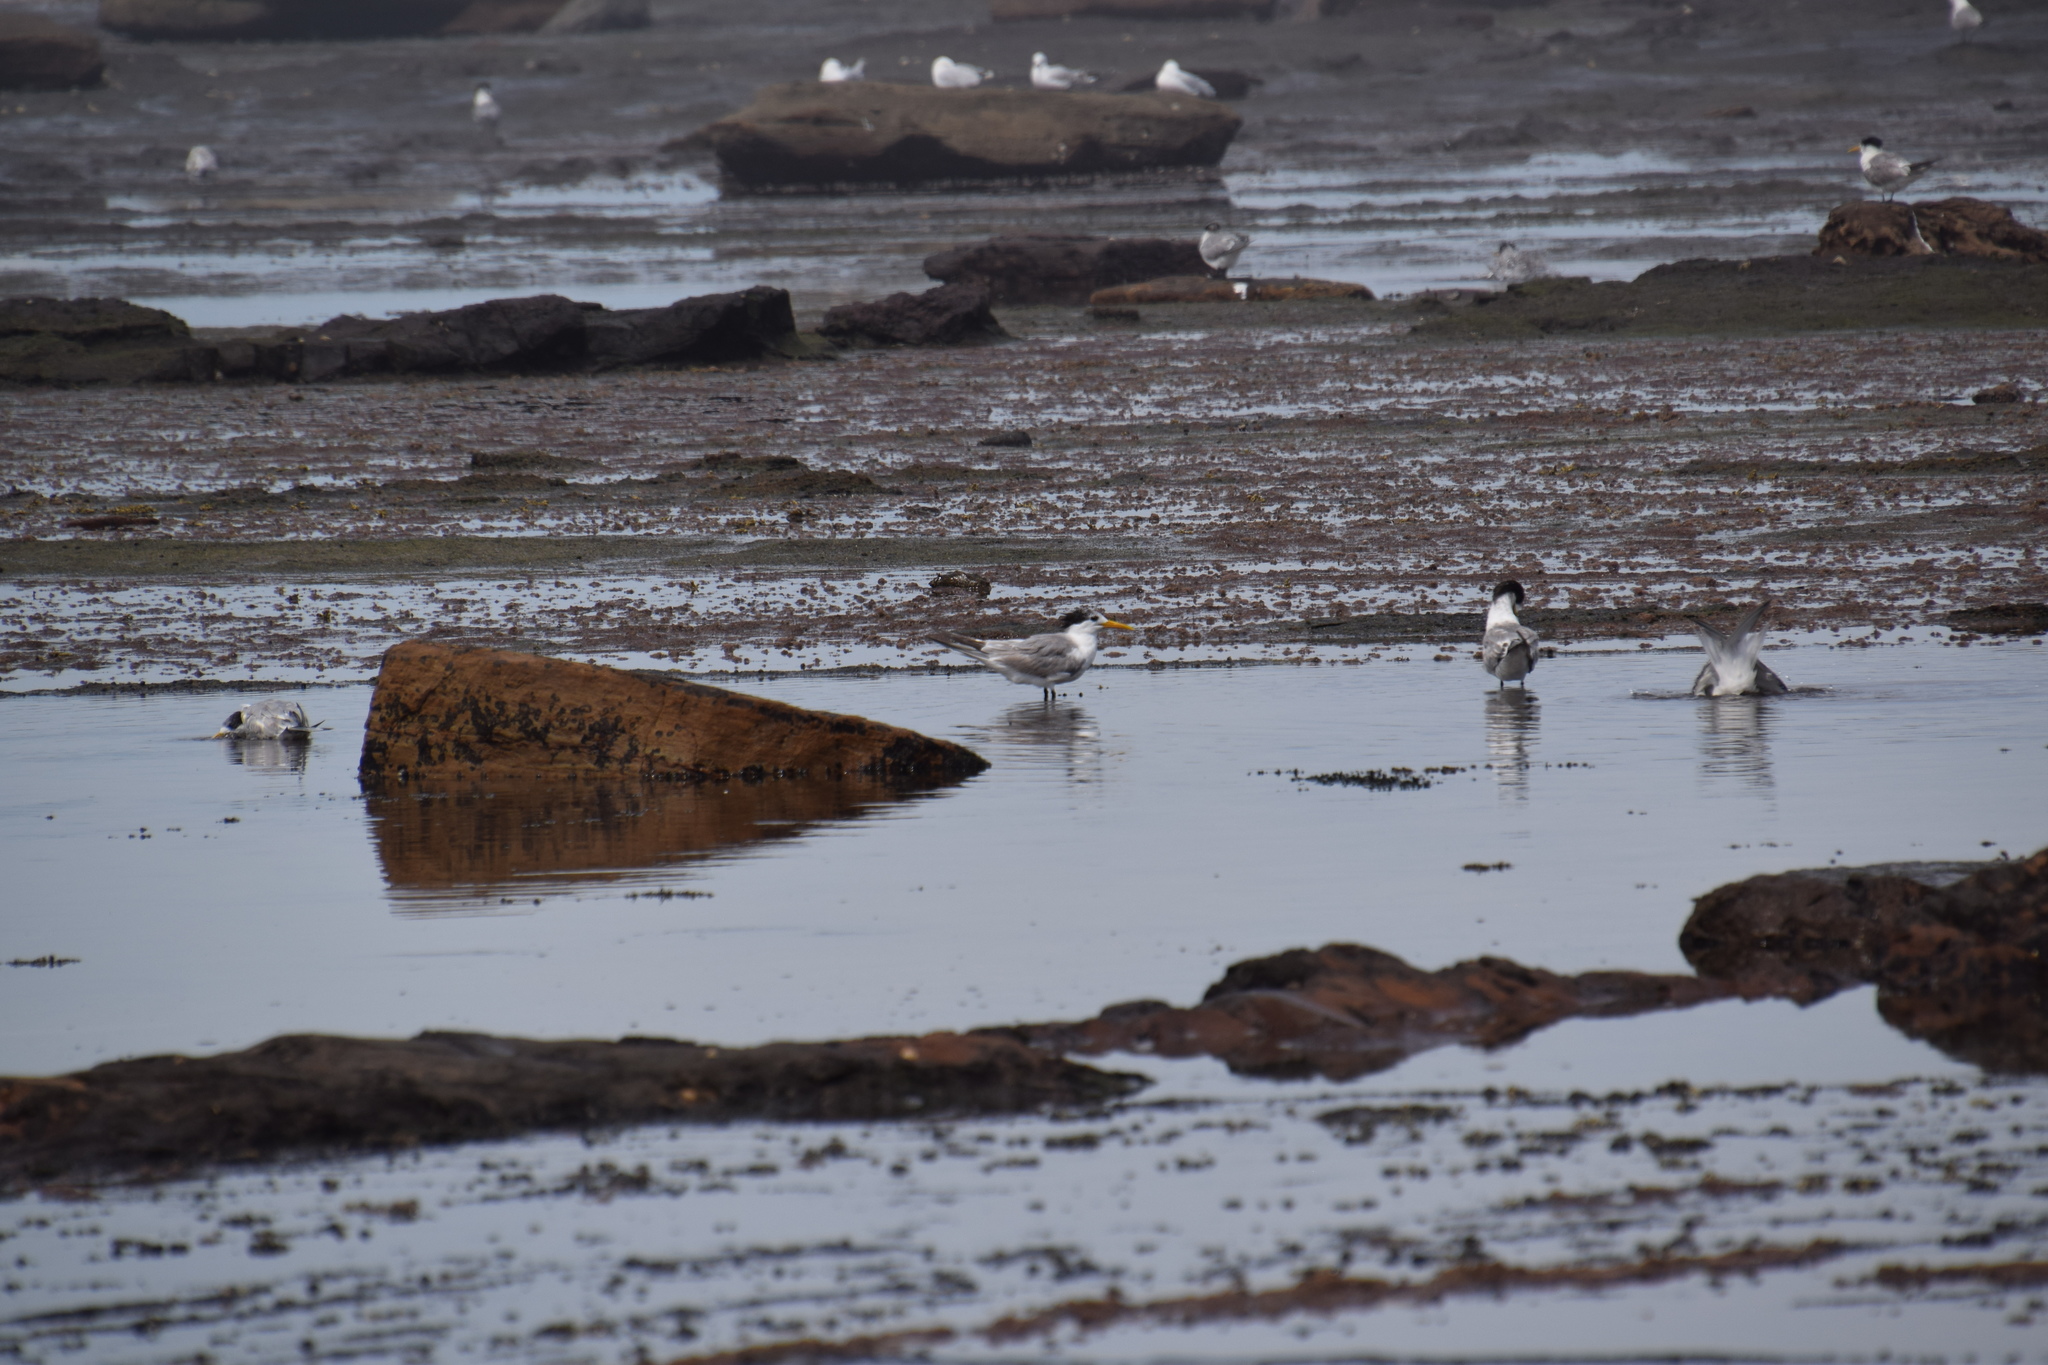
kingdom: Animalia
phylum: Chordata
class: Aves
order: Charadriiformes
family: Laridae
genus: Thalasseus
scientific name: Thalasseus bergii
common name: Greater crested tern
